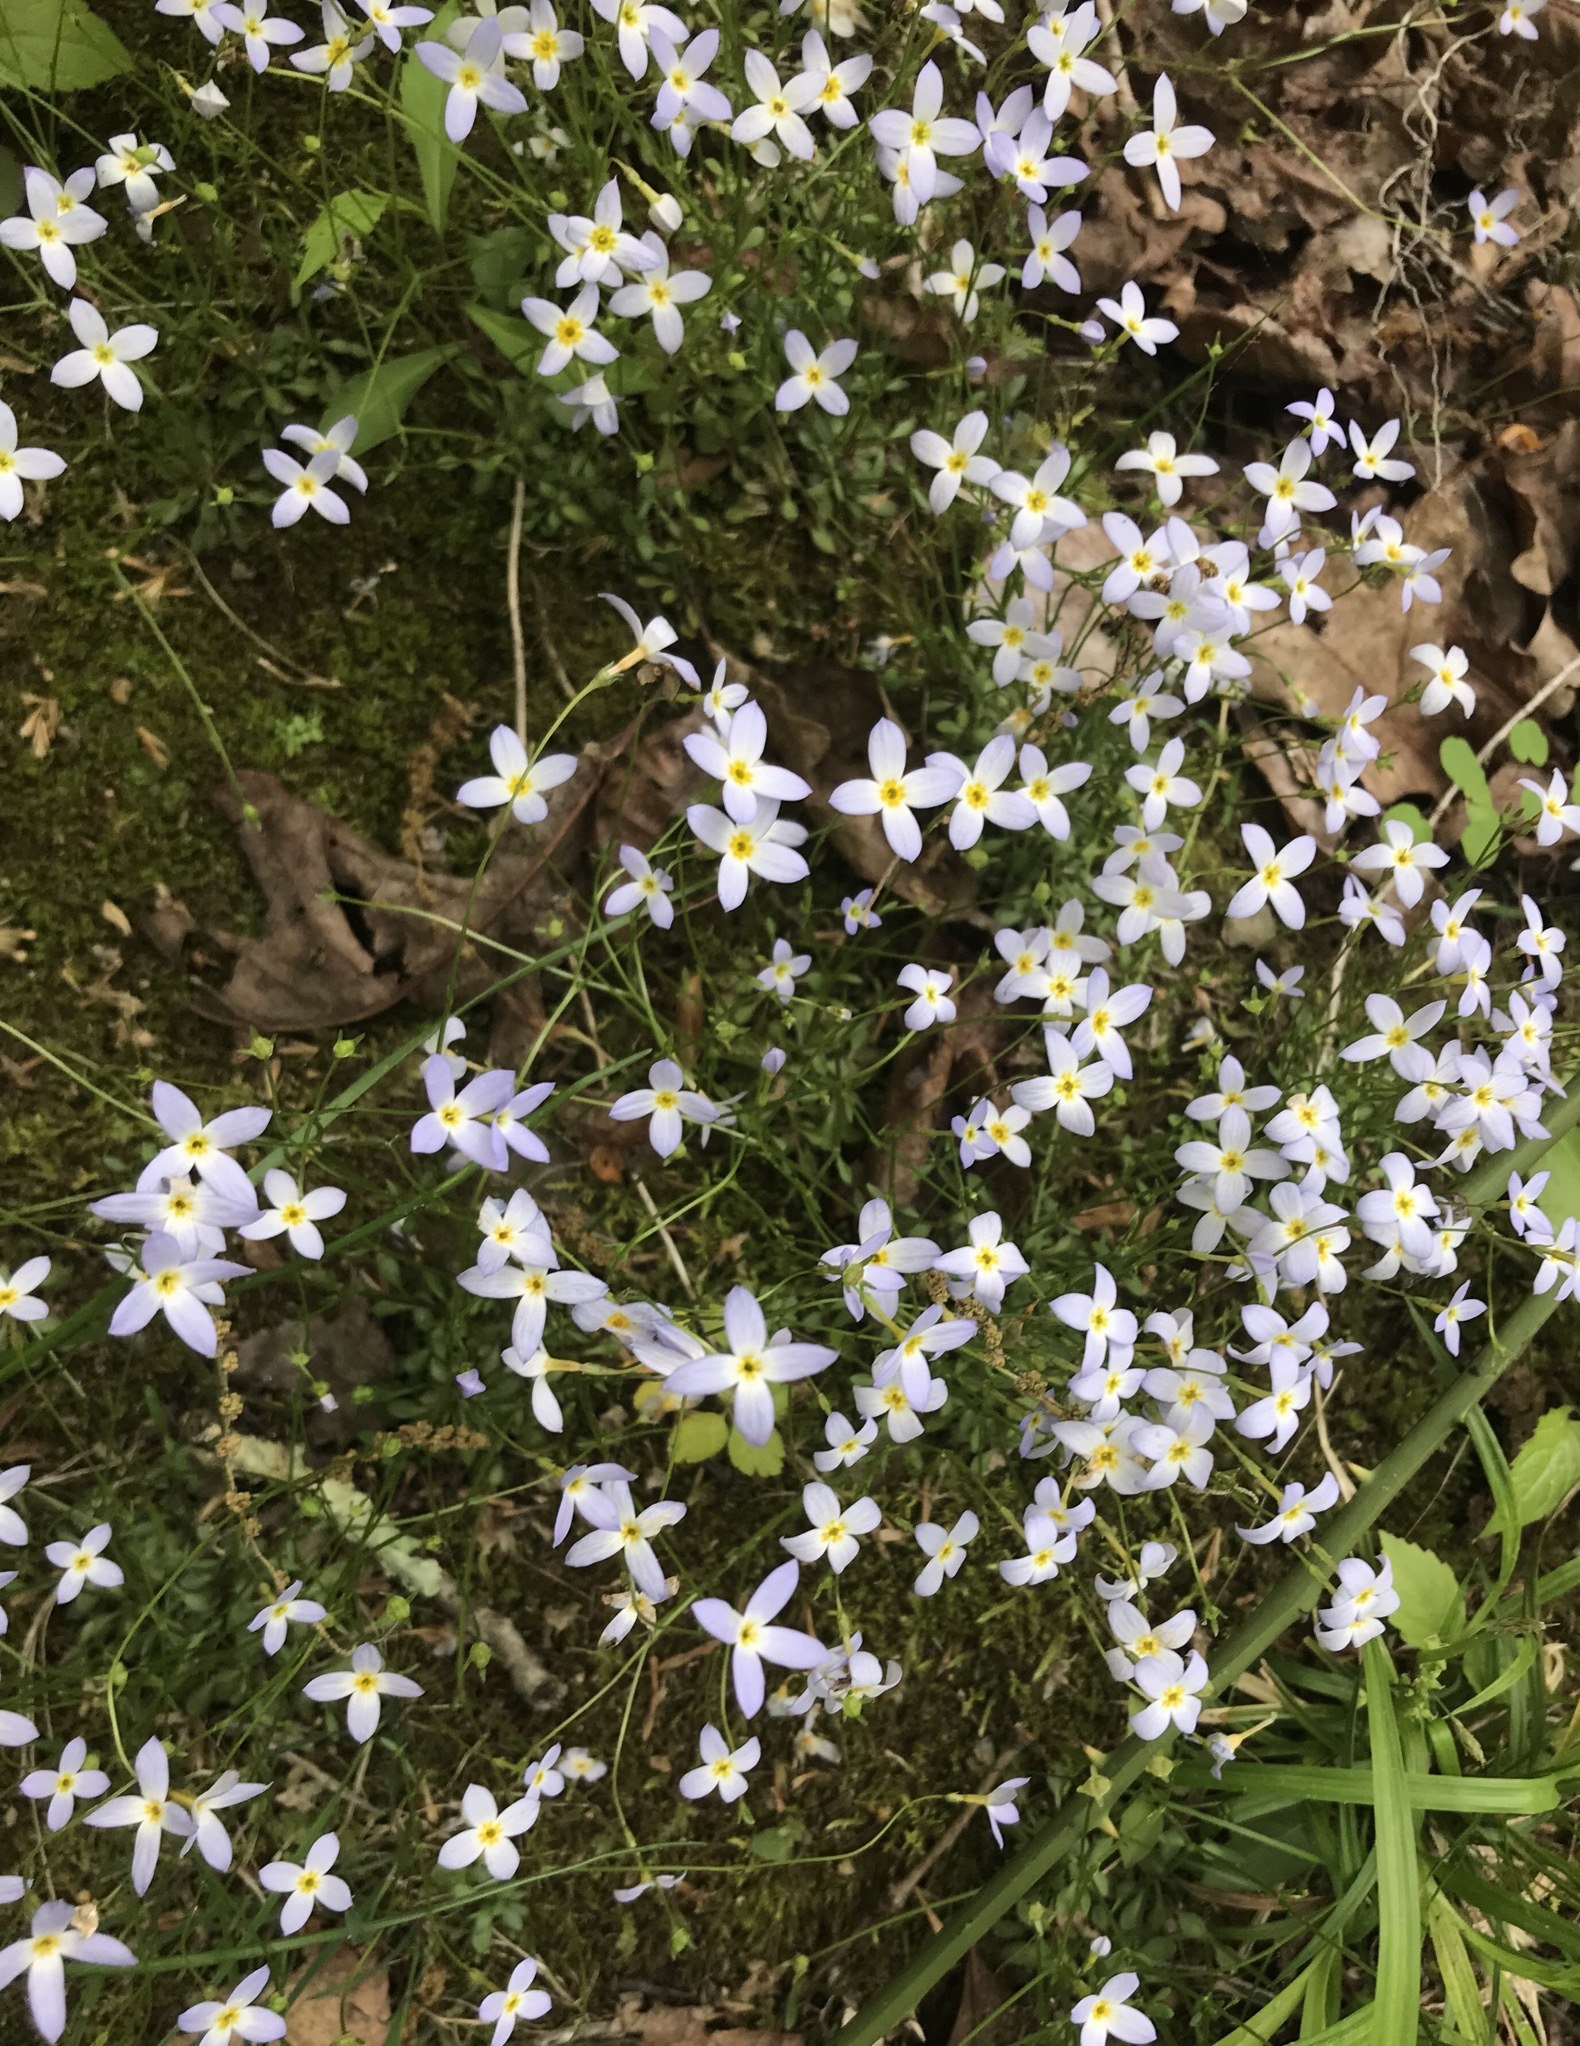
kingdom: Plantae
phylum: Tracheophyta
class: Magnoliopsida
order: Gentianales
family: Rubiaceae
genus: Houstonia
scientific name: Houstonia caerulea
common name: Bluets
